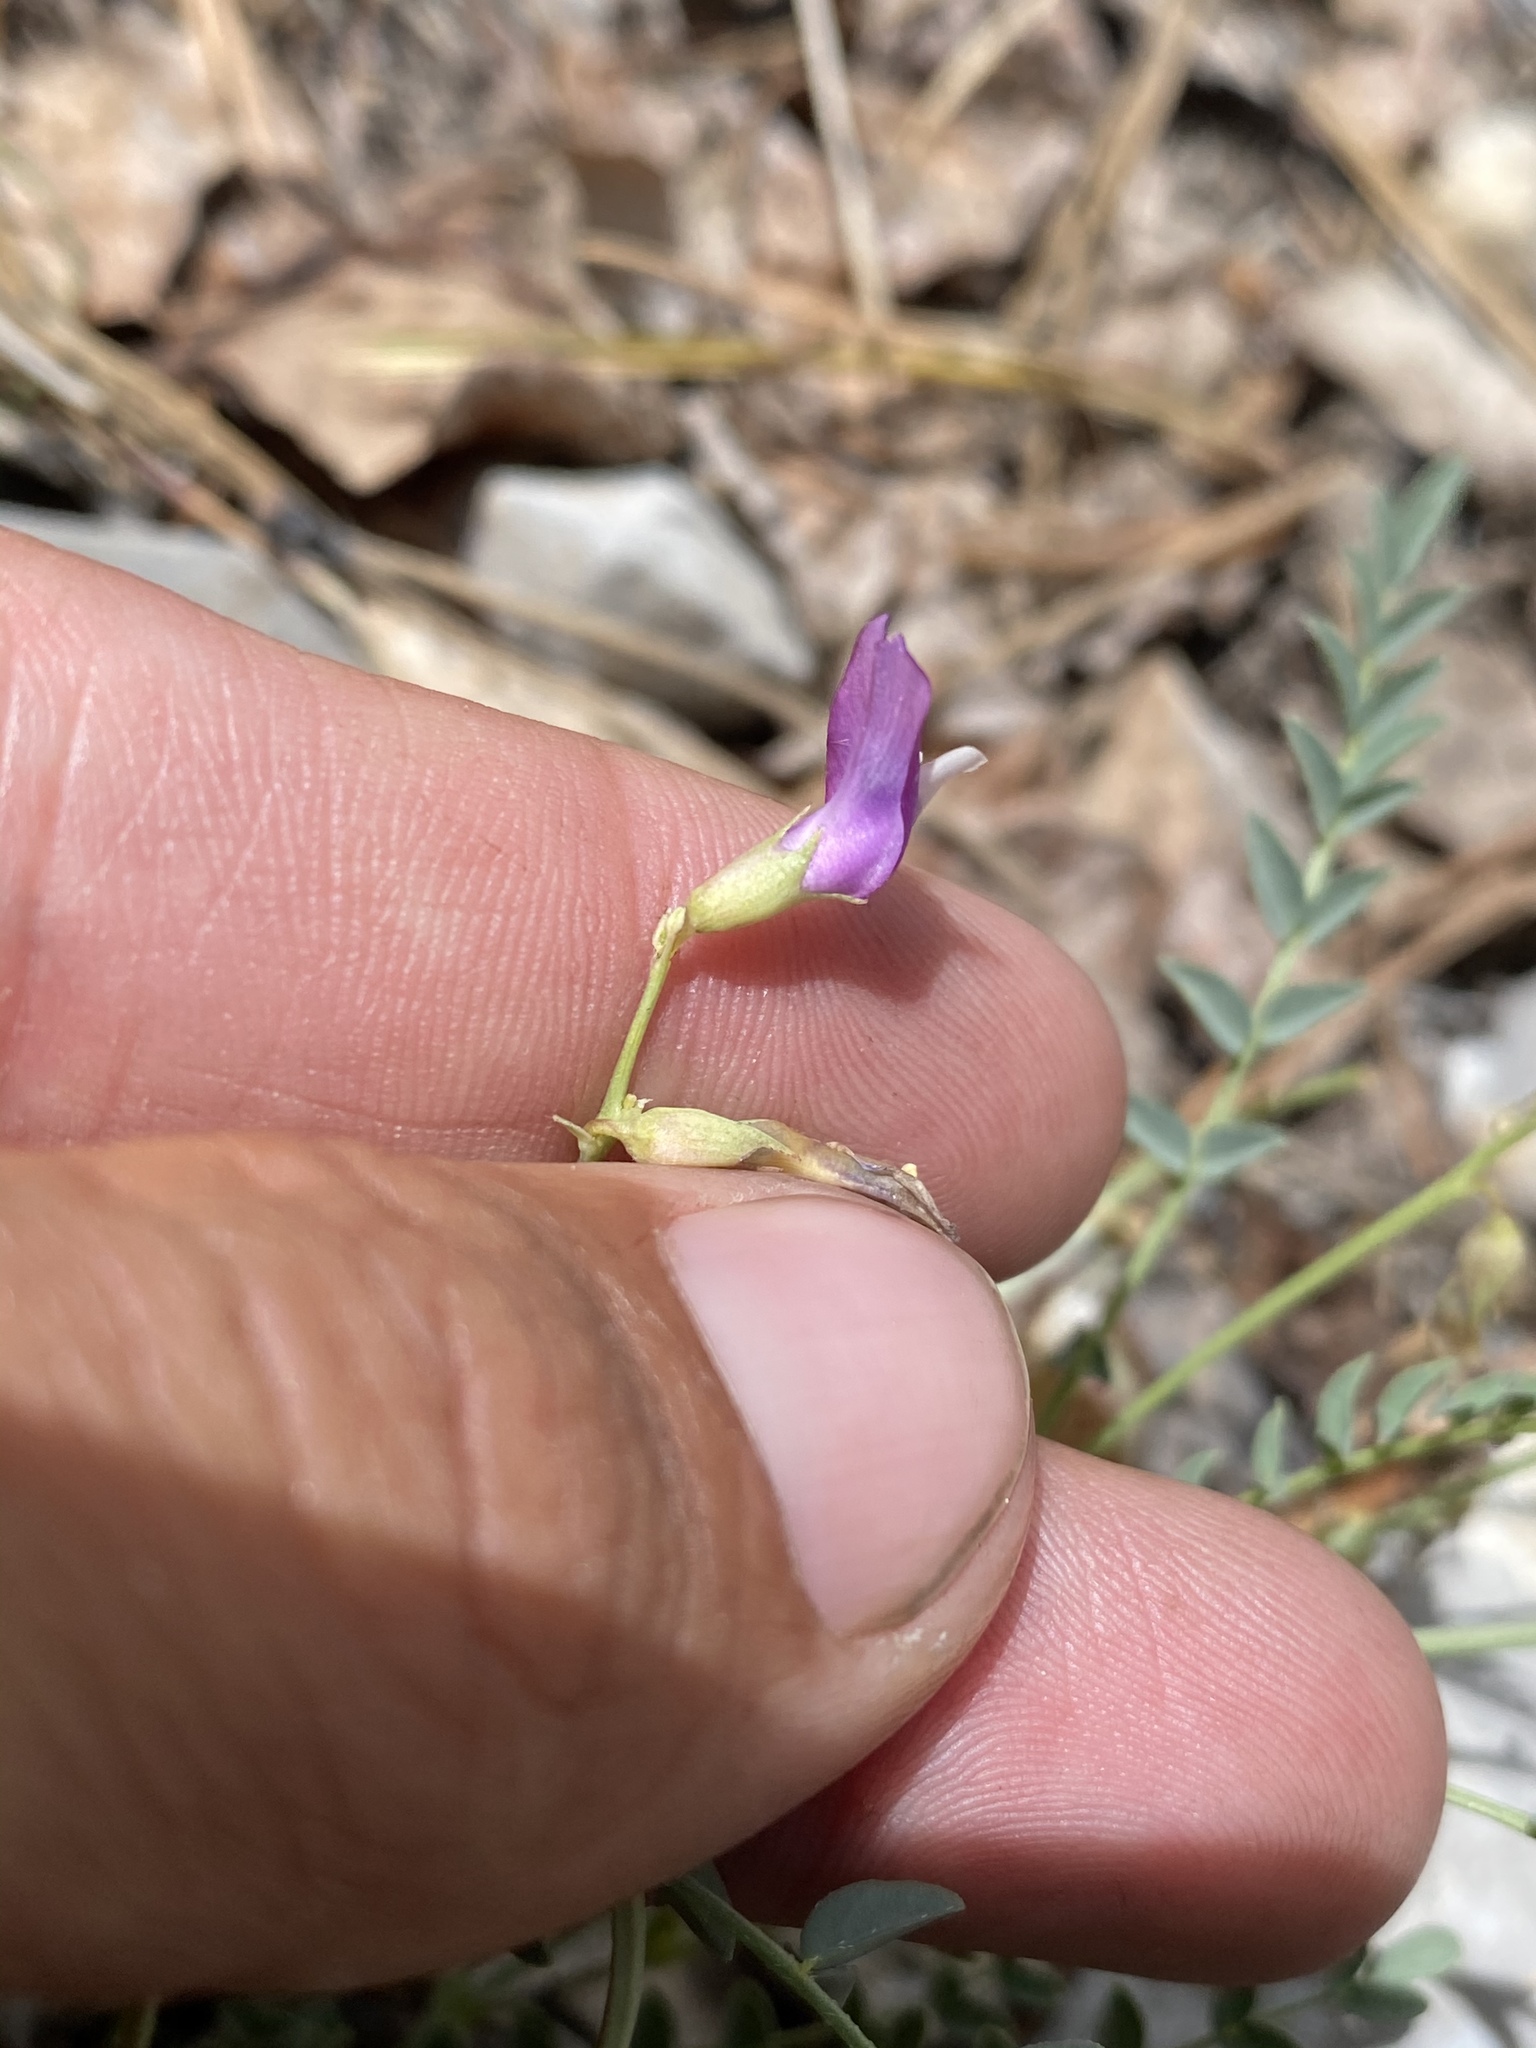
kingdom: Plantae
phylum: Tracheophyta
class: Magnoliopsida
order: Fabales
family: Fabaceae
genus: Astragalus
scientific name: Astragalus oophorus
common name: Egg milkvetch
